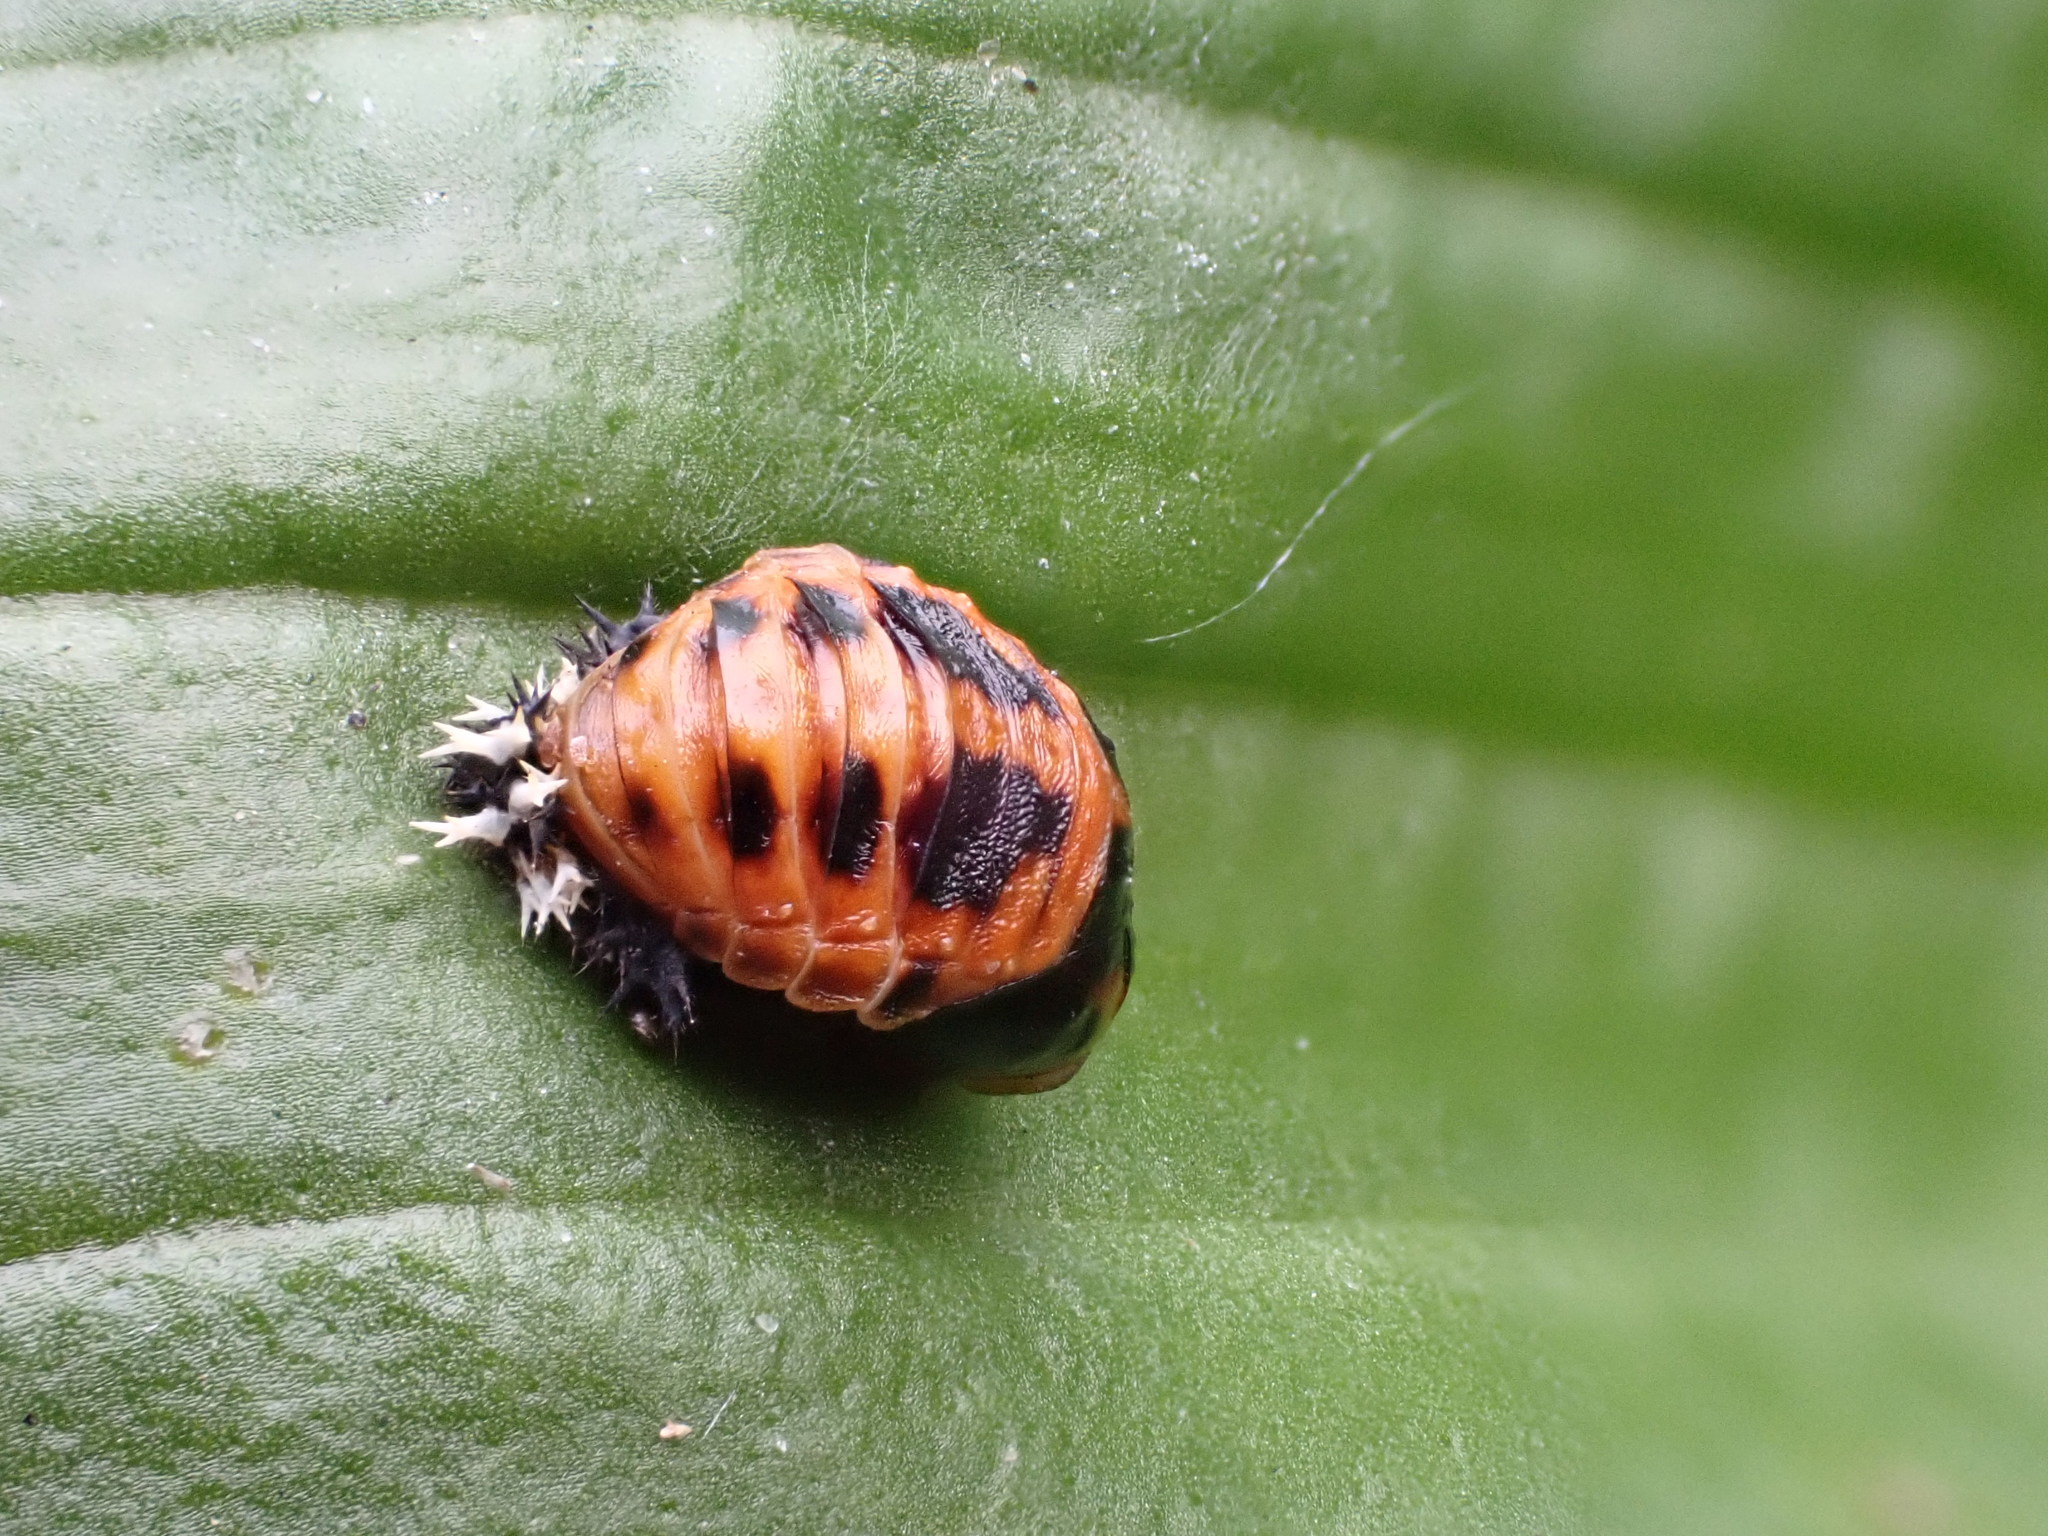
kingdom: Animalia
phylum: Arthropoda
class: Insecta
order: Coleoptera
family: Coccinellidae
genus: Harmonia
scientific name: Harmonia axyridis
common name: Harlequin ladybird
